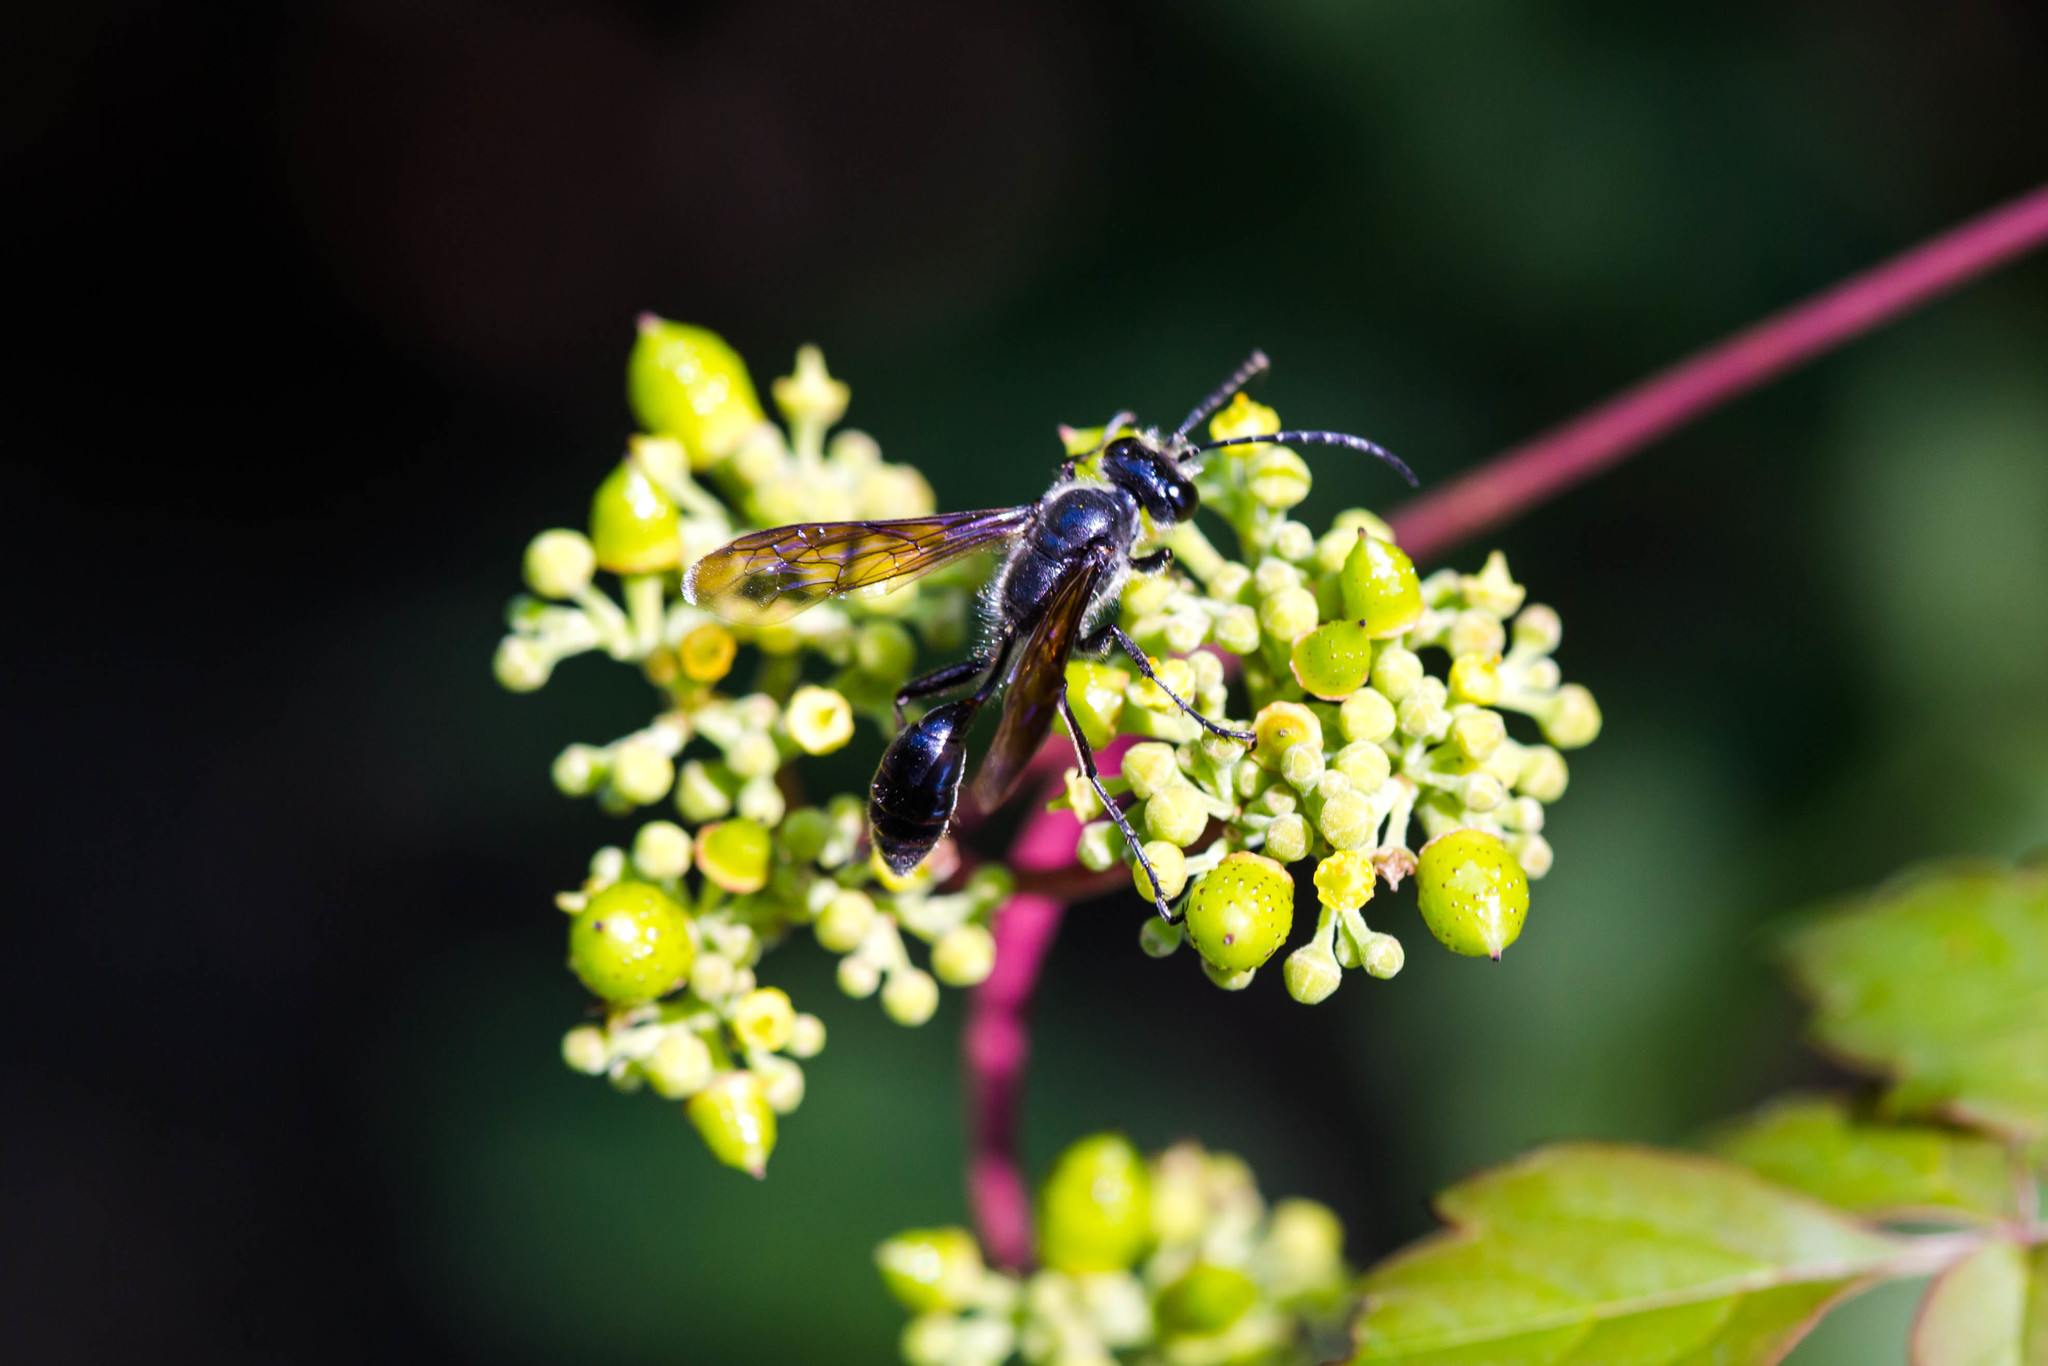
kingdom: Animalia
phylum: Arthropoda
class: Insecta
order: Hymenoptera
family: Sphecidae
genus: Isodontia
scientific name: Isodontia mexicana
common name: Mud dauber
